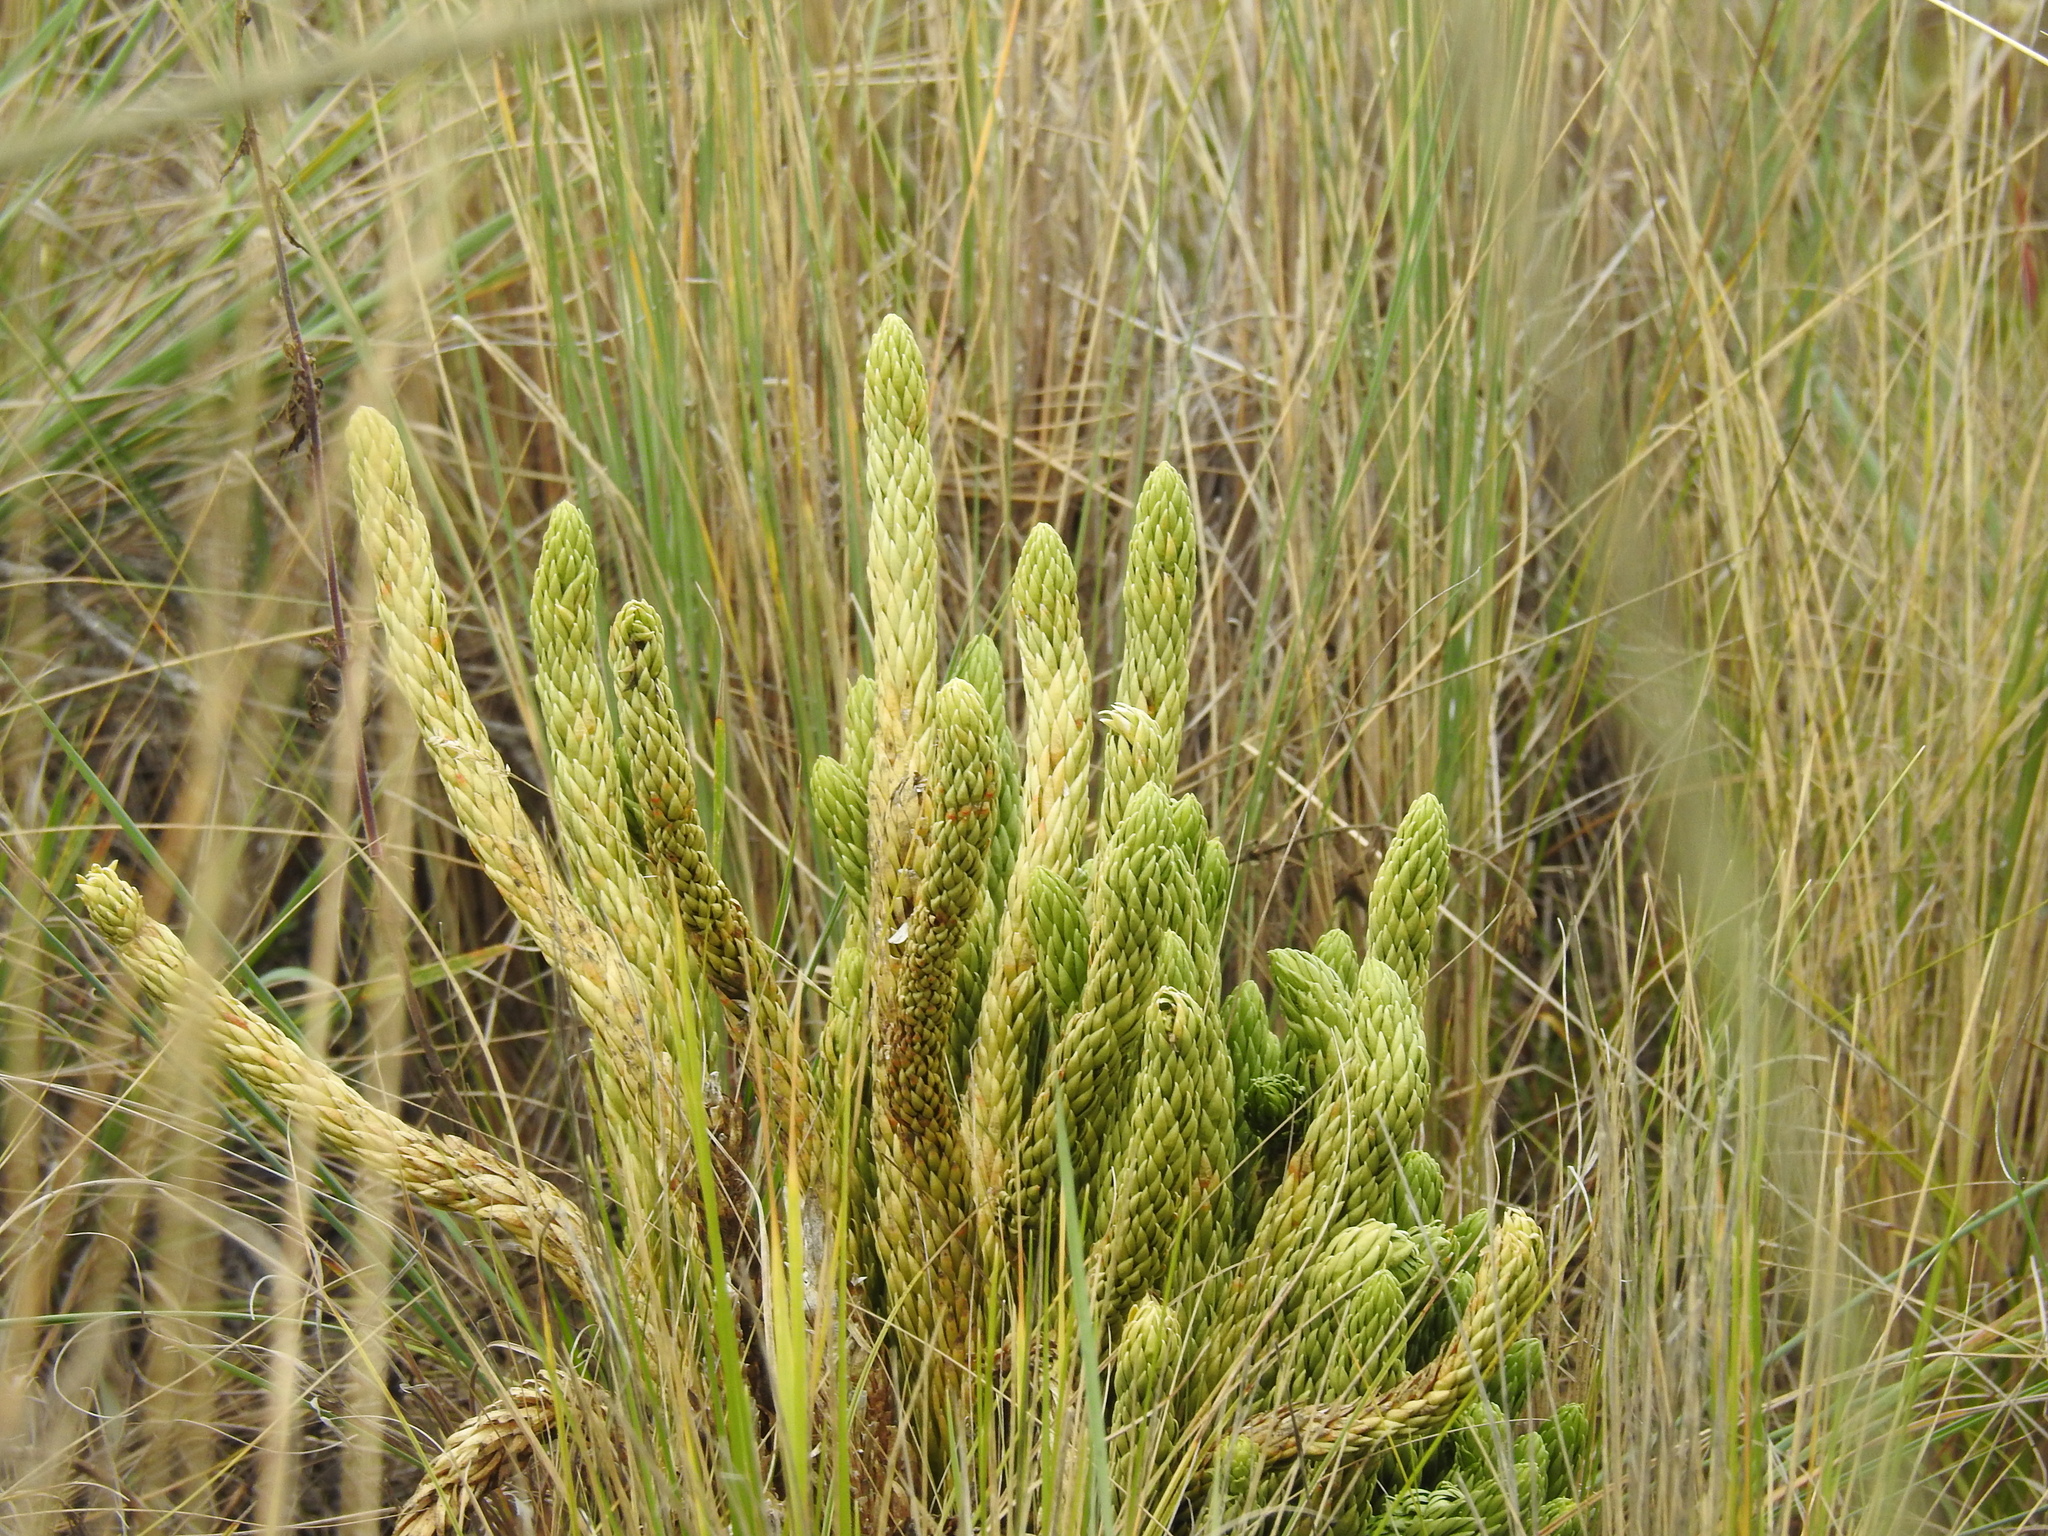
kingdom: Plantae
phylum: Tracheophyta
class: Lycopodiopsida
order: Lycopodiales
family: Lycopodiaceae
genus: Phlegmariurus
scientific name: Phlegmariurus saururus
